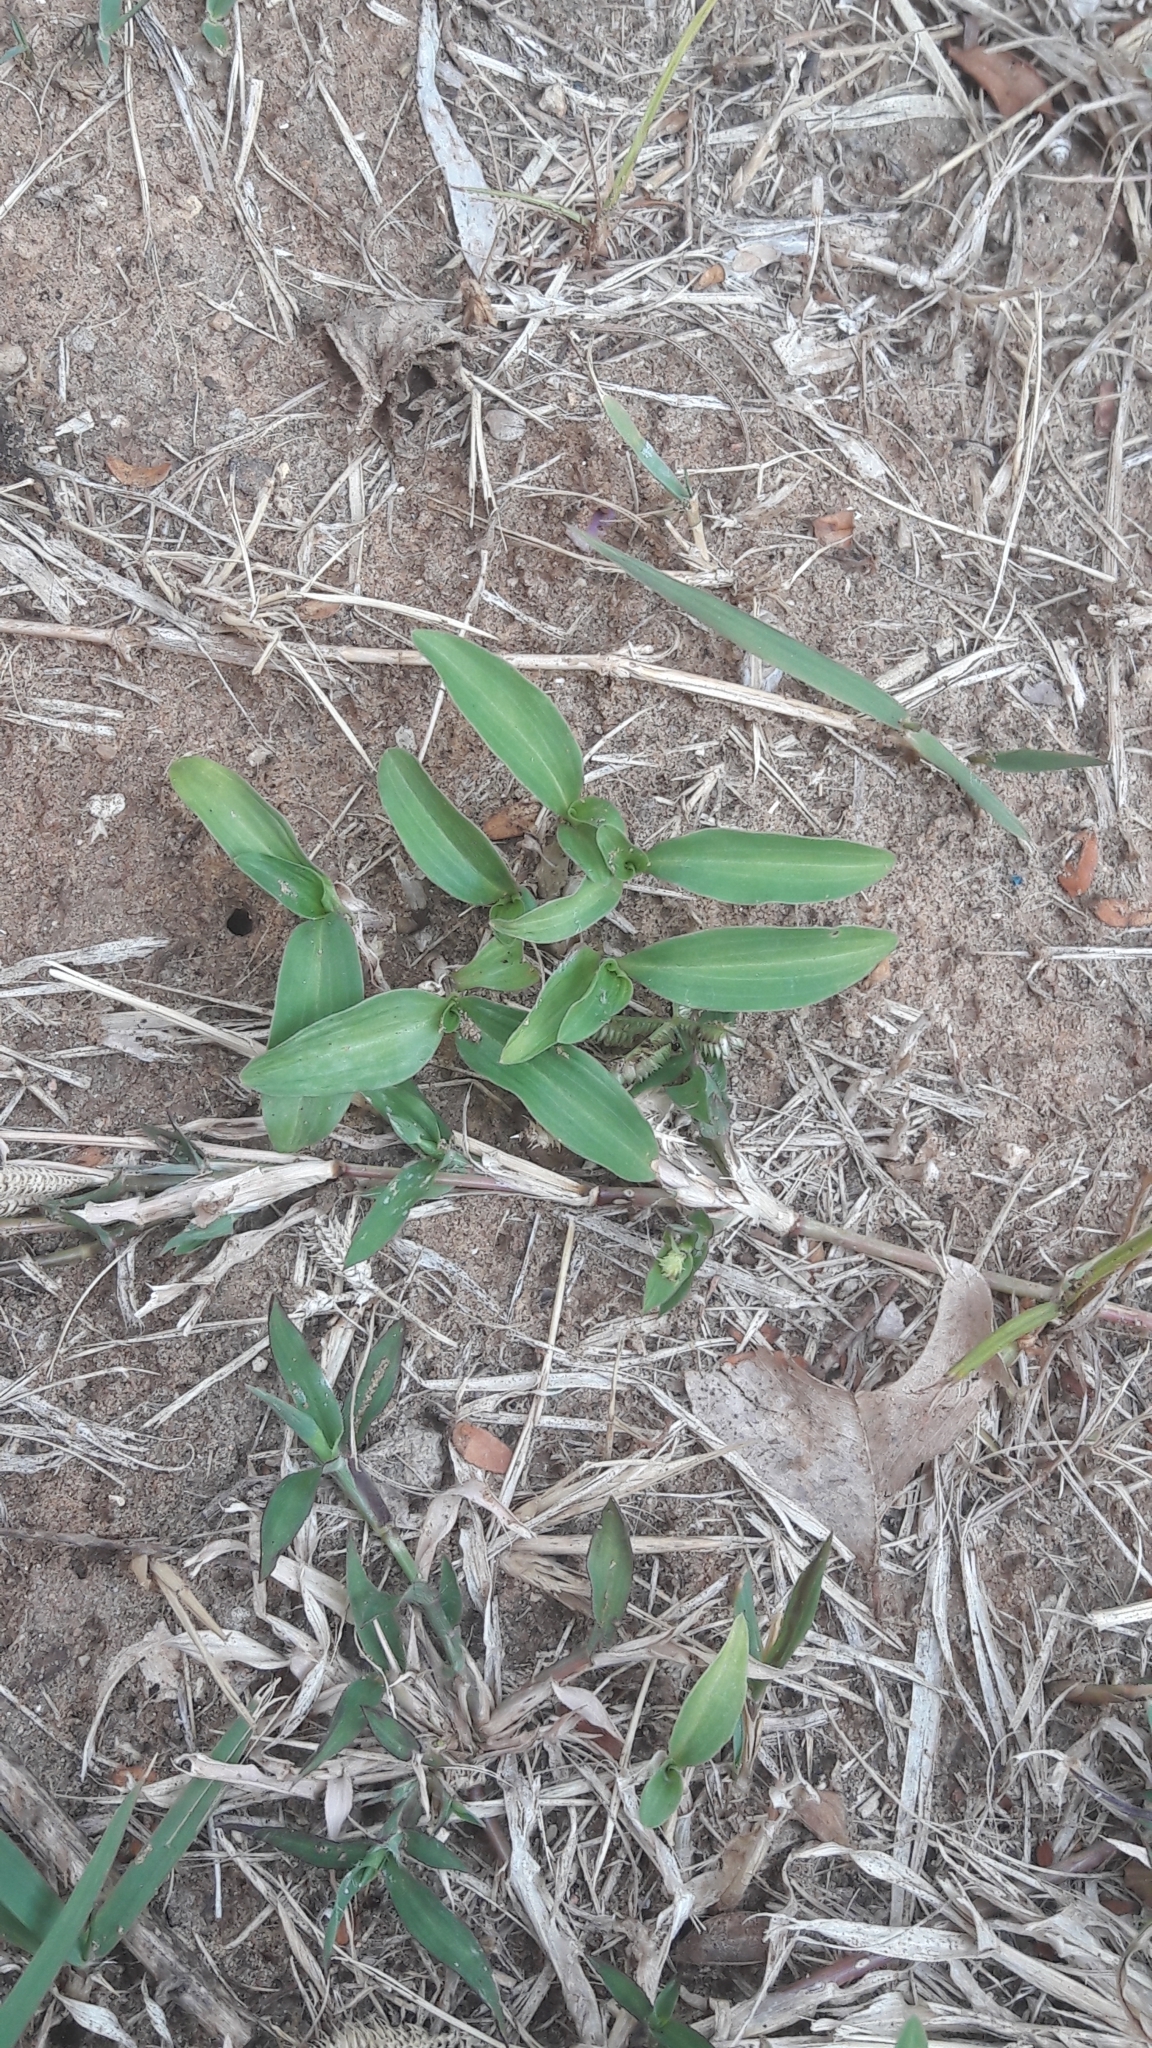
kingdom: Plantae
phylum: Tracheophyta
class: Liliopsida
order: Commelinales
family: Commelinaceae
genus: Commelina
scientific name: Commelina erecta
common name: Blousel blommetjie
